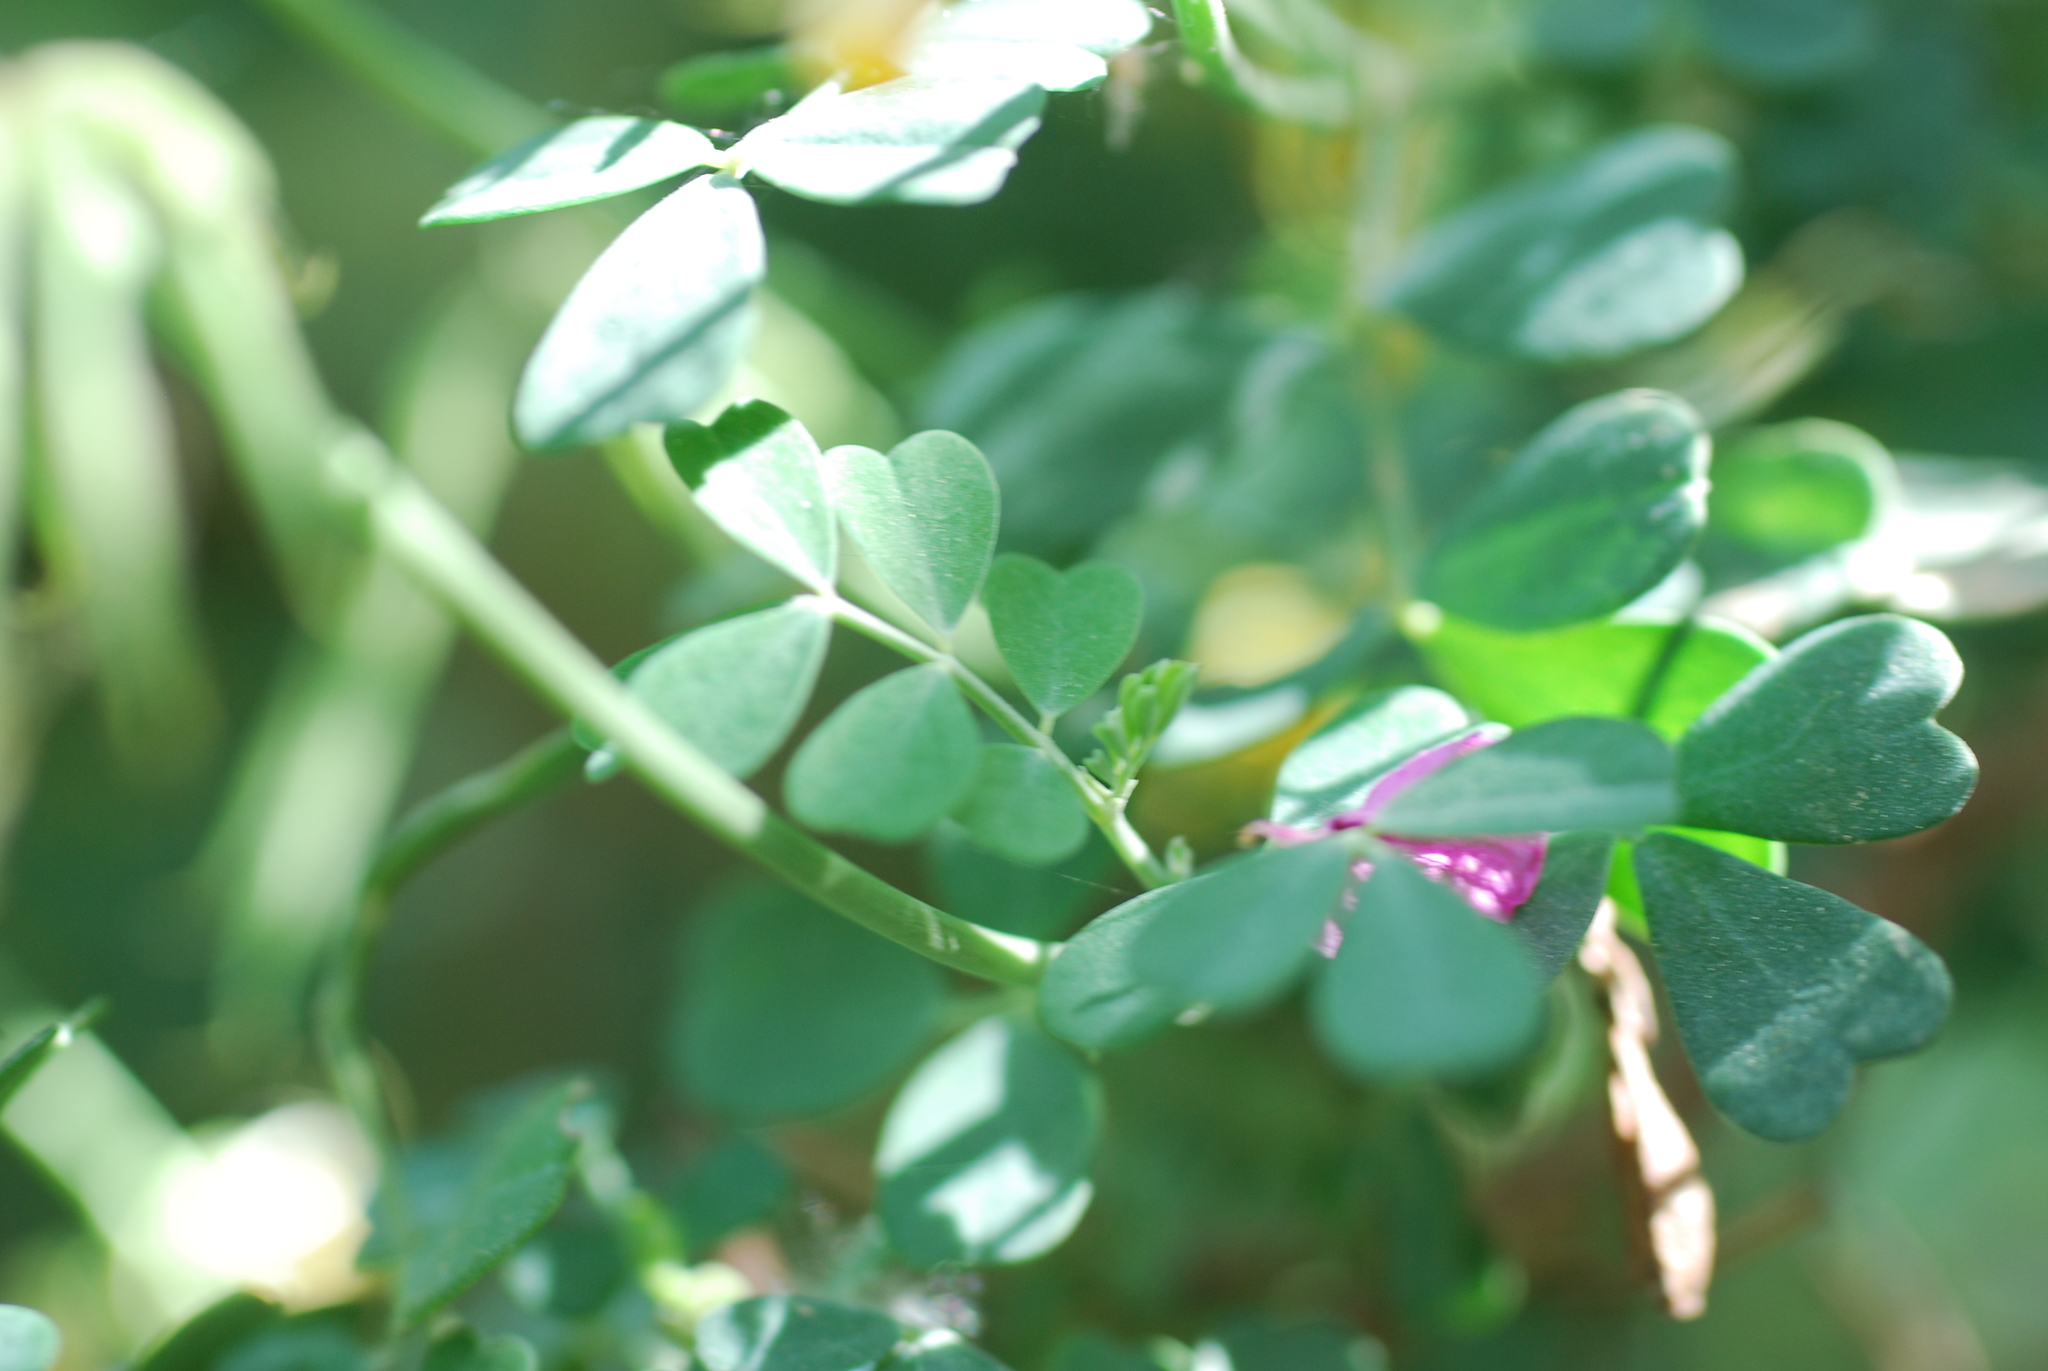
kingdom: Plantae
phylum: Tracheophyta
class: Magnoliopsida
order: Fabales
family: Fabaceae
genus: Coronilla
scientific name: Coronilla valentina
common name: Shrubby scorpion-vetch
